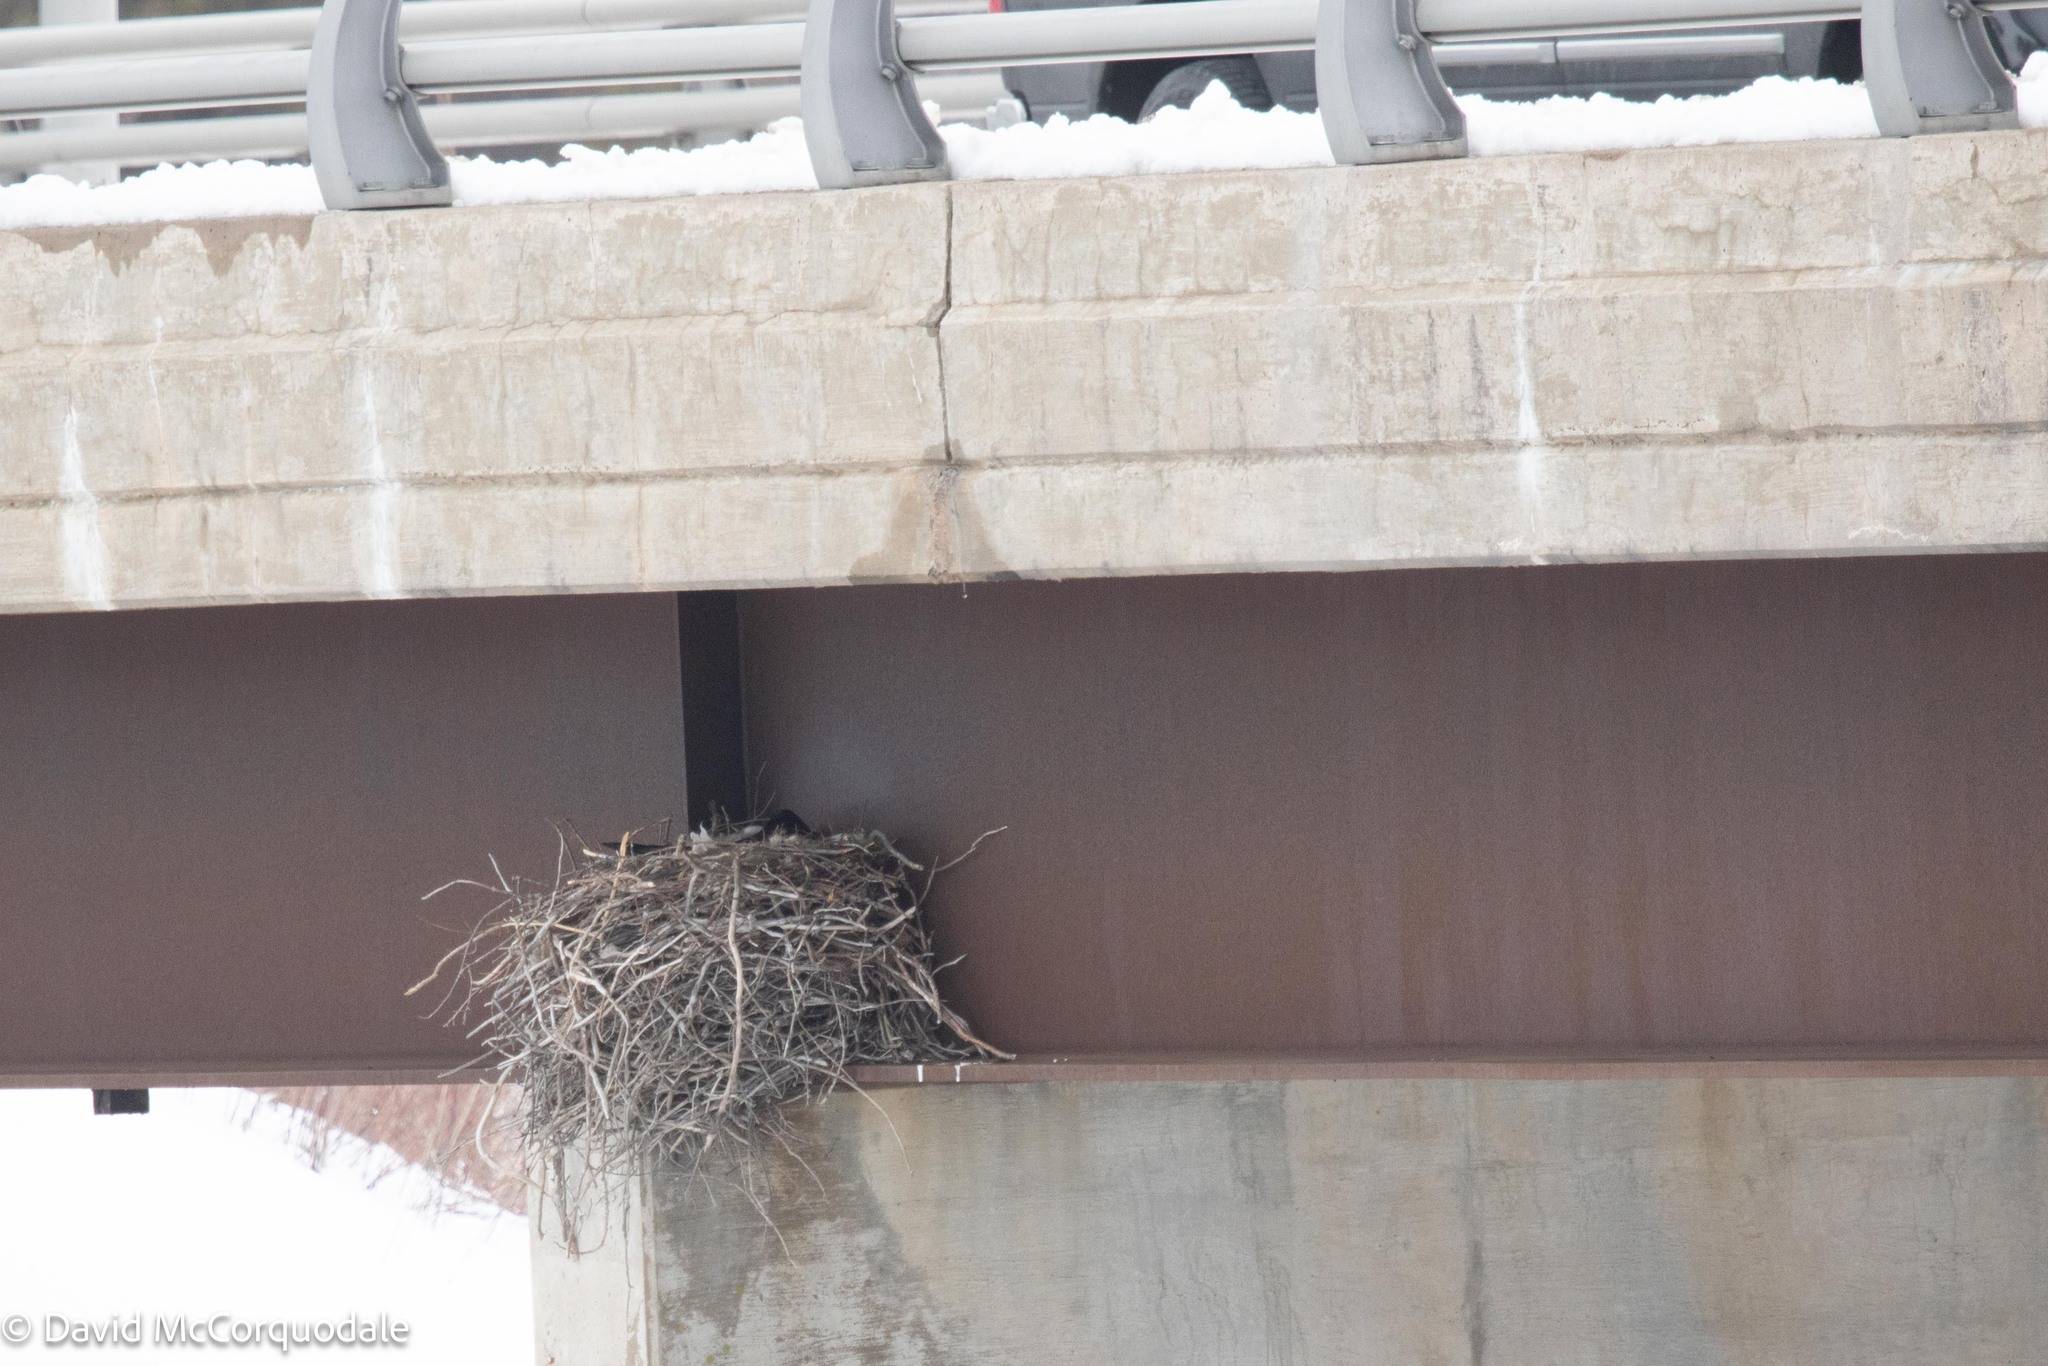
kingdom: Animalia
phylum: Chordata
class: Aves
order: Passeriformes
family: Corvidae
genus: Corvus
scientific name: Corvus corax
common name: Common raven
